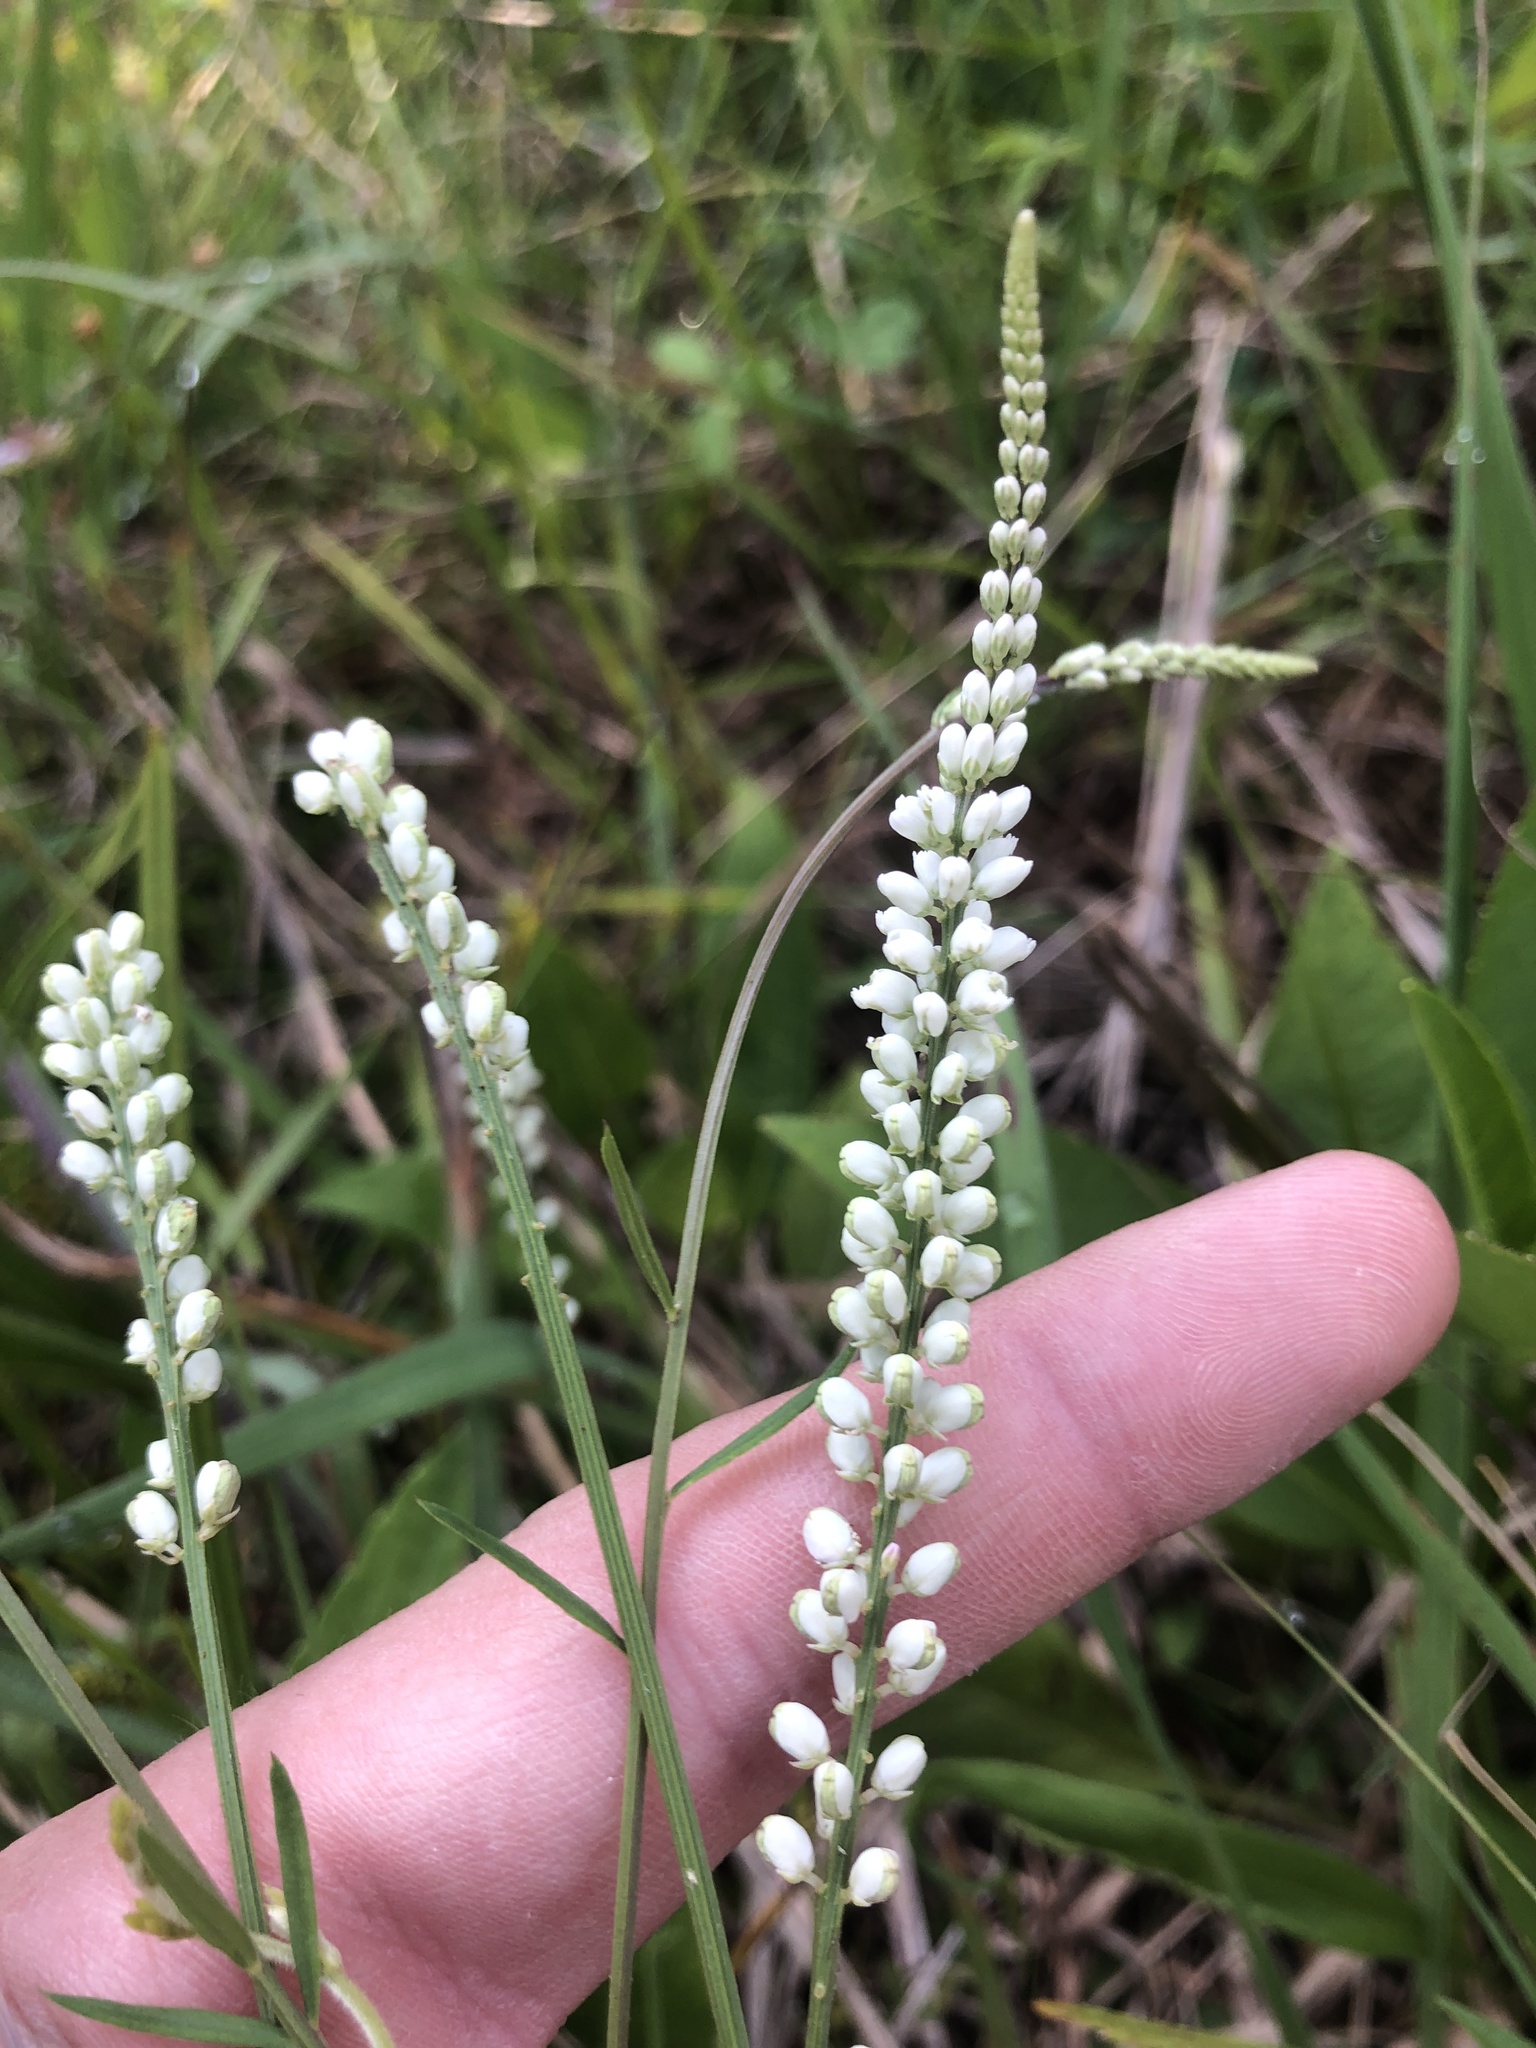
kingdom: Plantae
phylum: Tracheophyta
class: Magnoliopsida
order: Fabales
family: Polygalaceae
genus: Polygala
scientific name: Polygala boykinii
